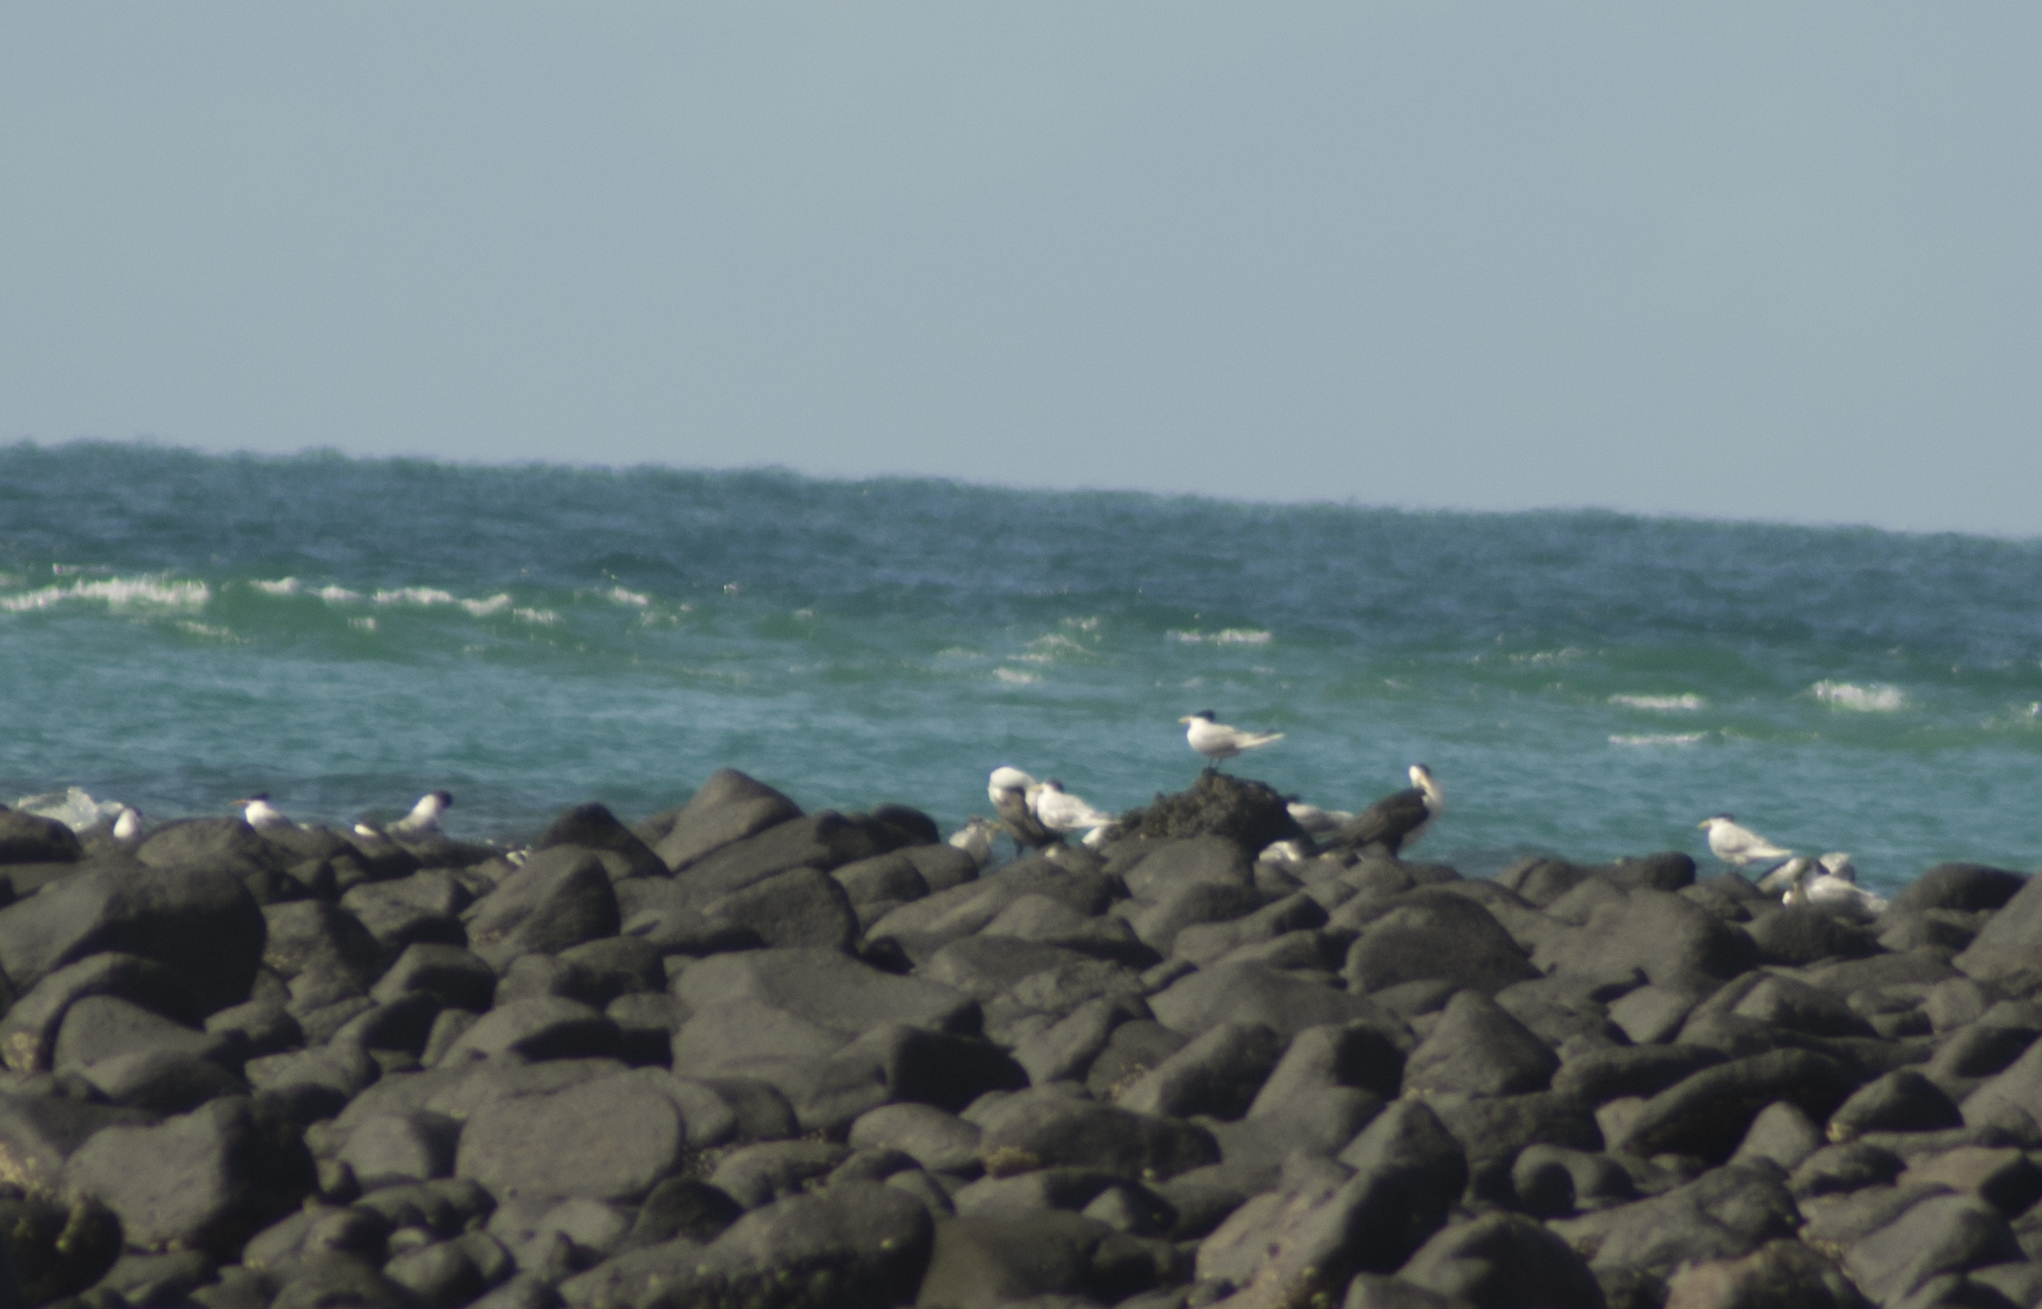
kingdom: Animalia
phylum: Chordata
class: Aves
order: Charadriiformes
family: Laridae
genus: Thalasseus
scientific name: Thalasseus bergii
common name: Greater crested tern
